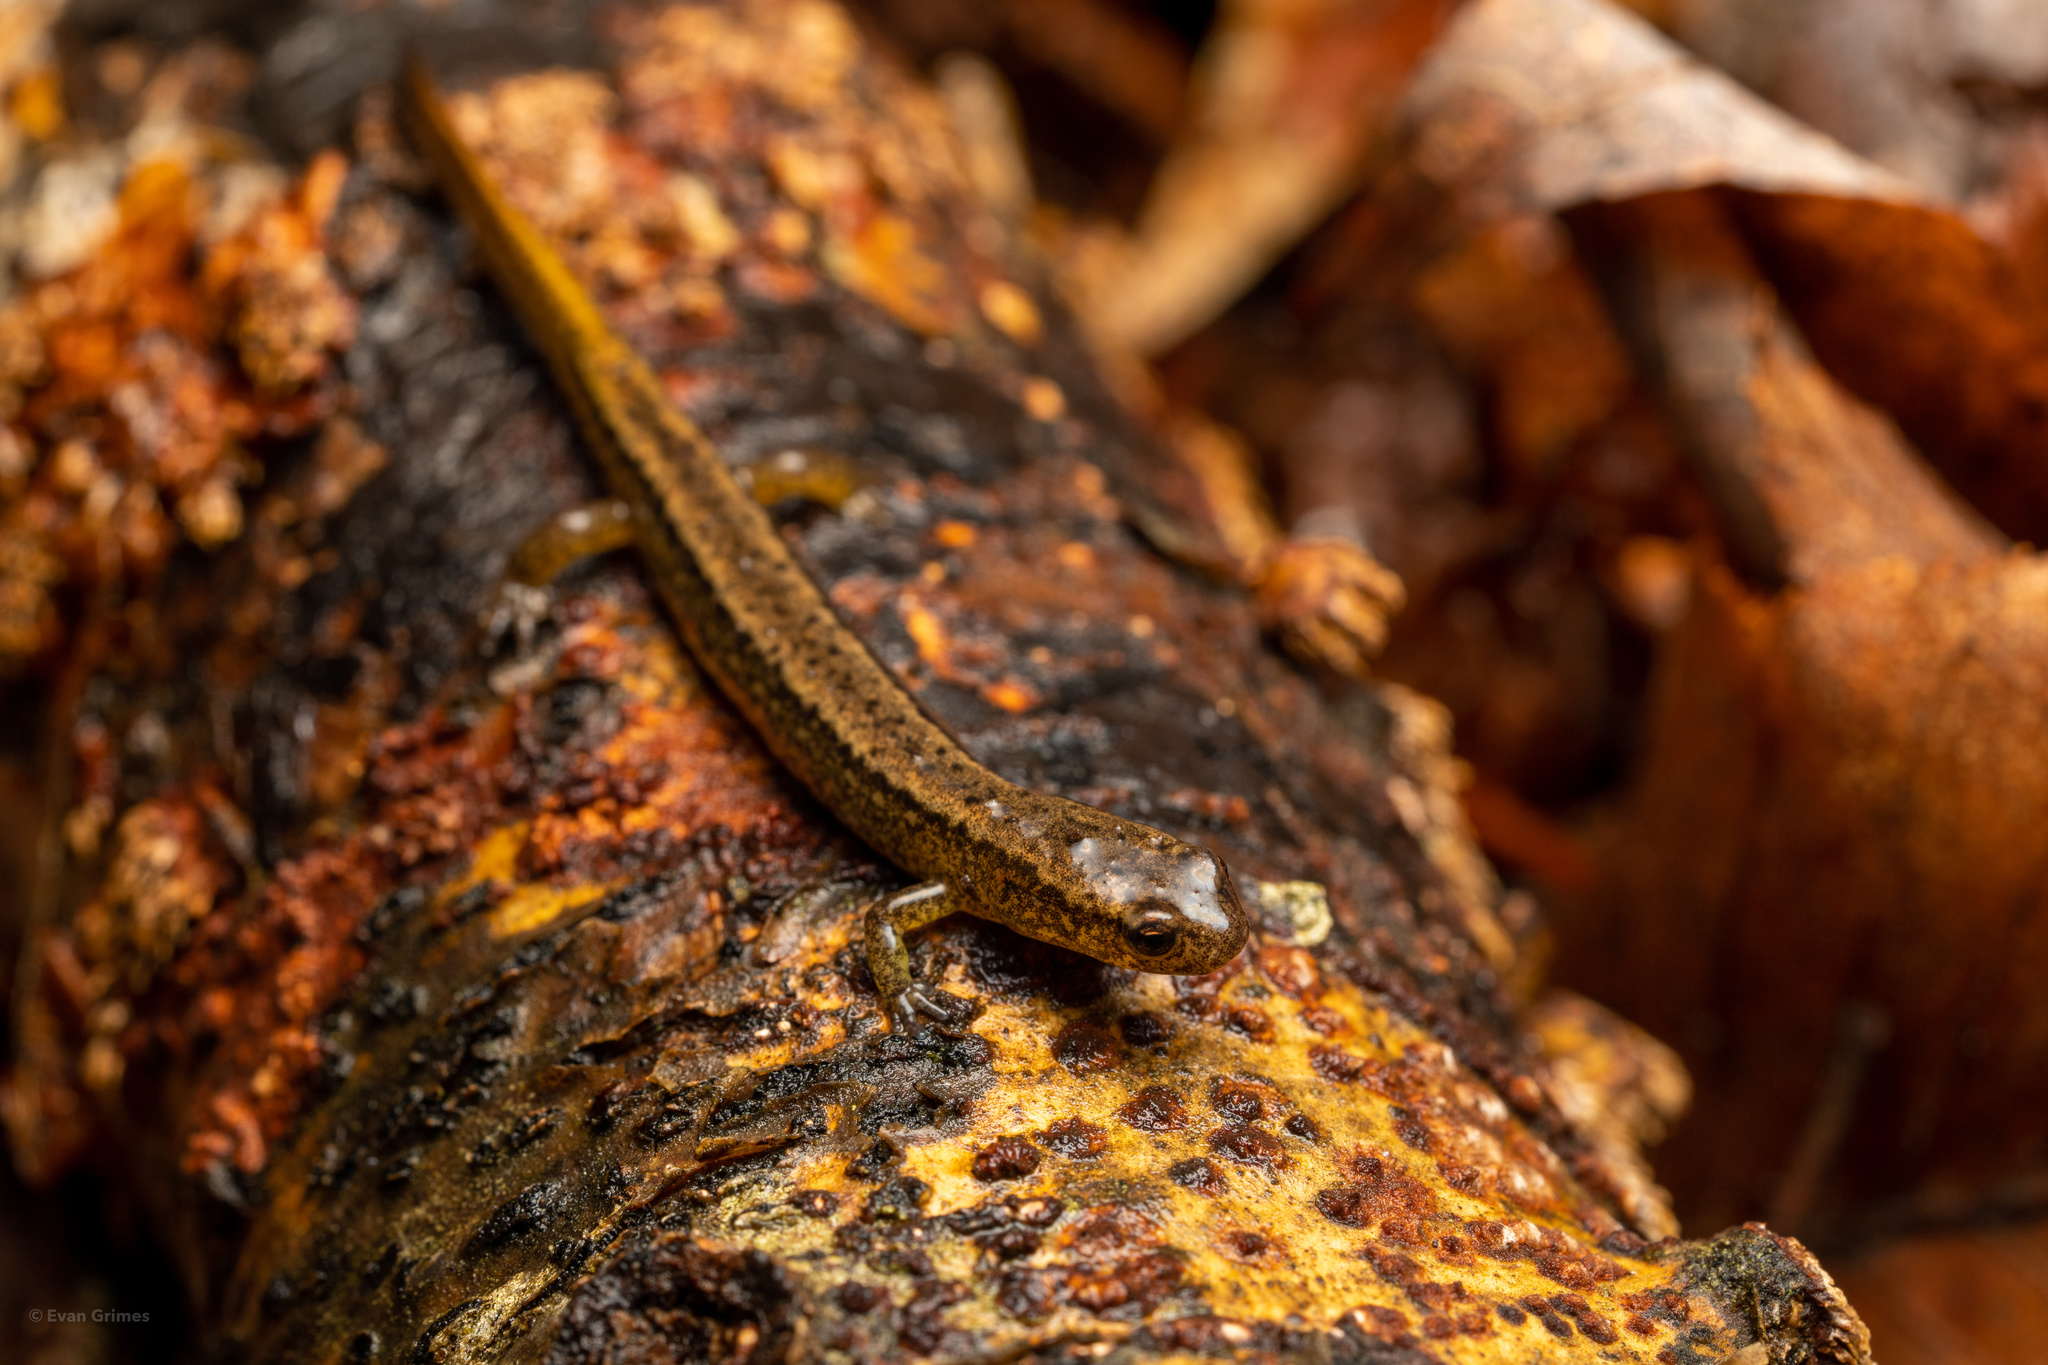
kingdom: Animalia
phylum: Chordata
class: Amphibia
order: Caudata
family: Plethodontidae
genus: Eurycea
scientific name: Eurycea bislineata
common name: Northern two-lined salamander
